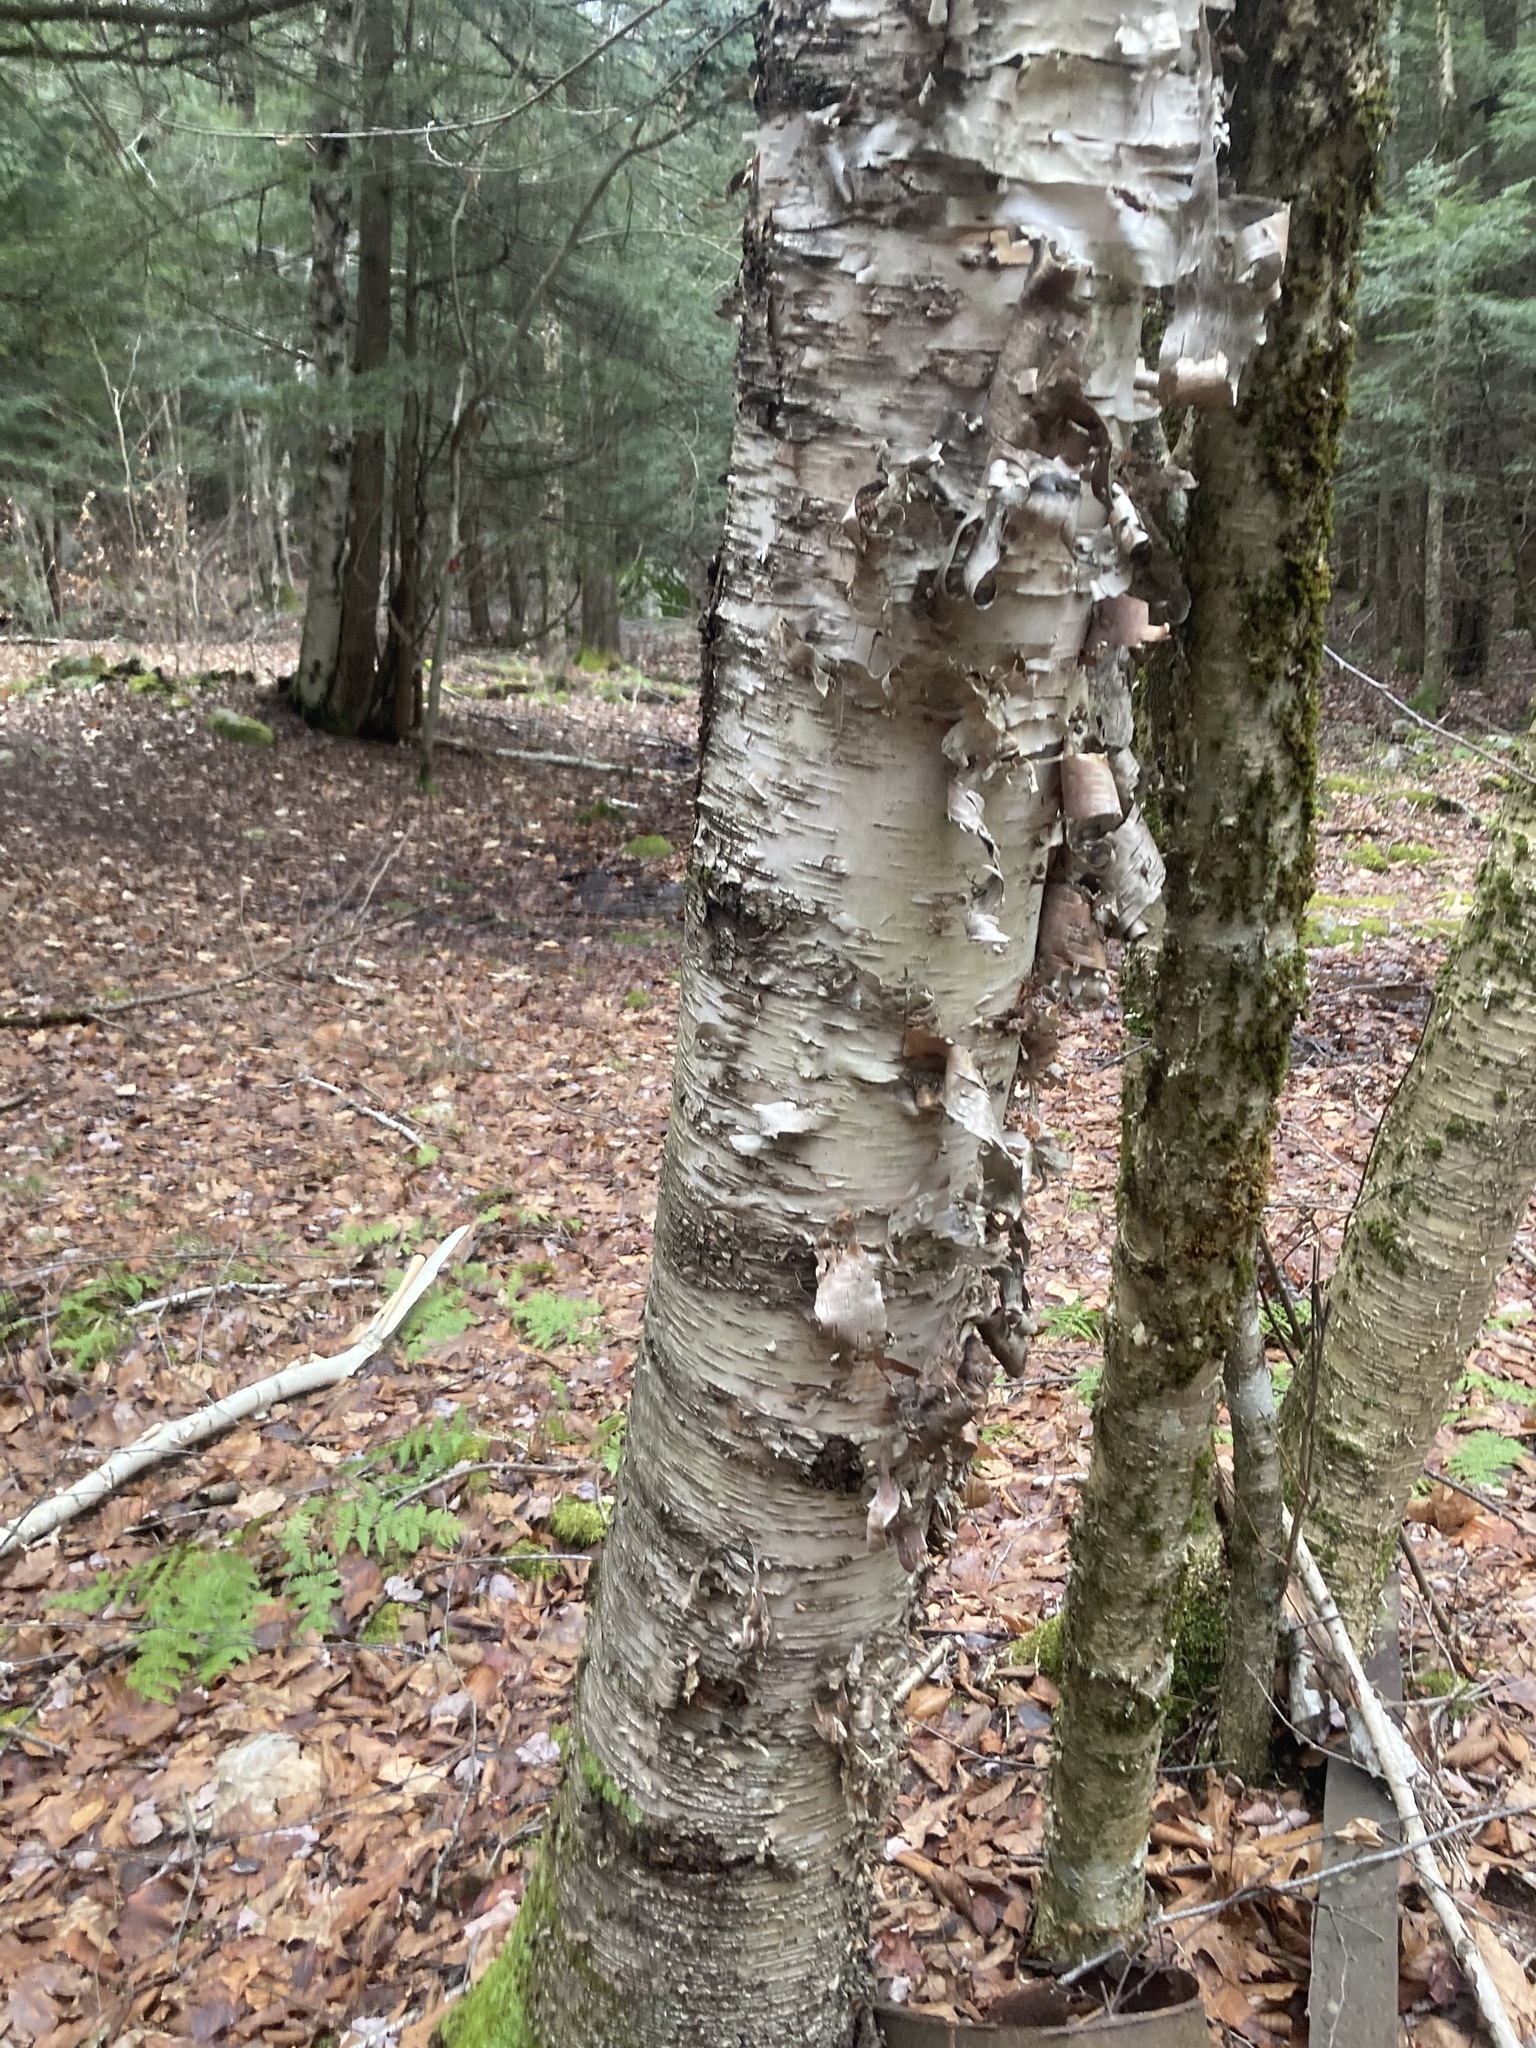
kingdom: Plantae
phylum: Tracheophyta
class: Magnoliopsida
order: Fagales
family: Betulaceae
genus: Betula
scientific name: Betula papyrifera
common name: Paper birch
